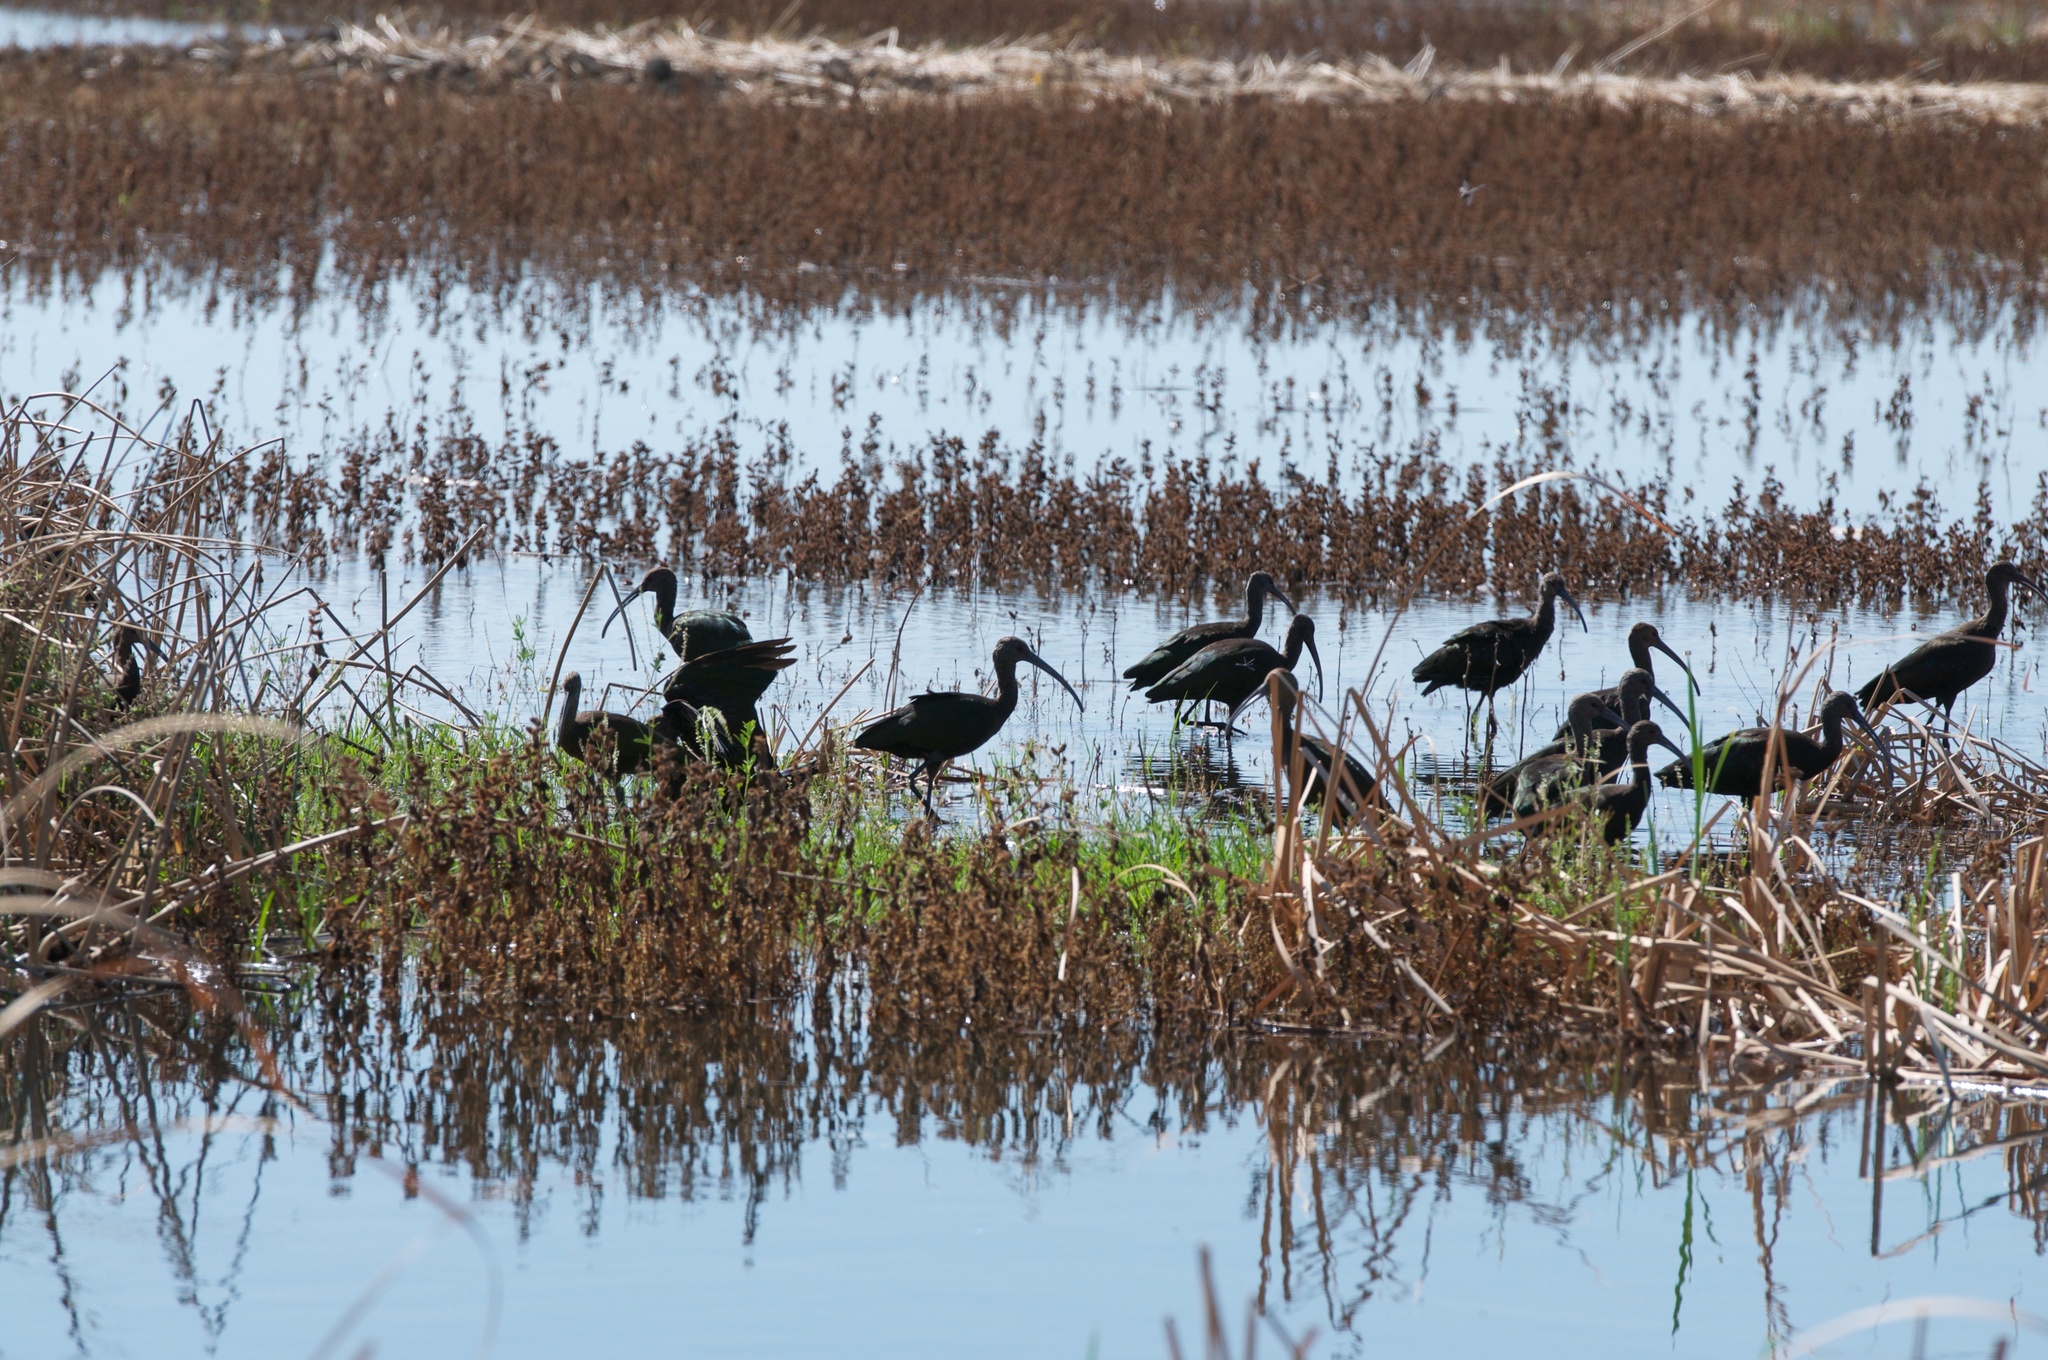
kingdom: Animalia
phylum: Chordata
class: Aves
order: Pelecaniformes
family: Threskiornithidae
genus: Plegadis
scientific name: Plegadis chihi
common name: White-faced ibis
